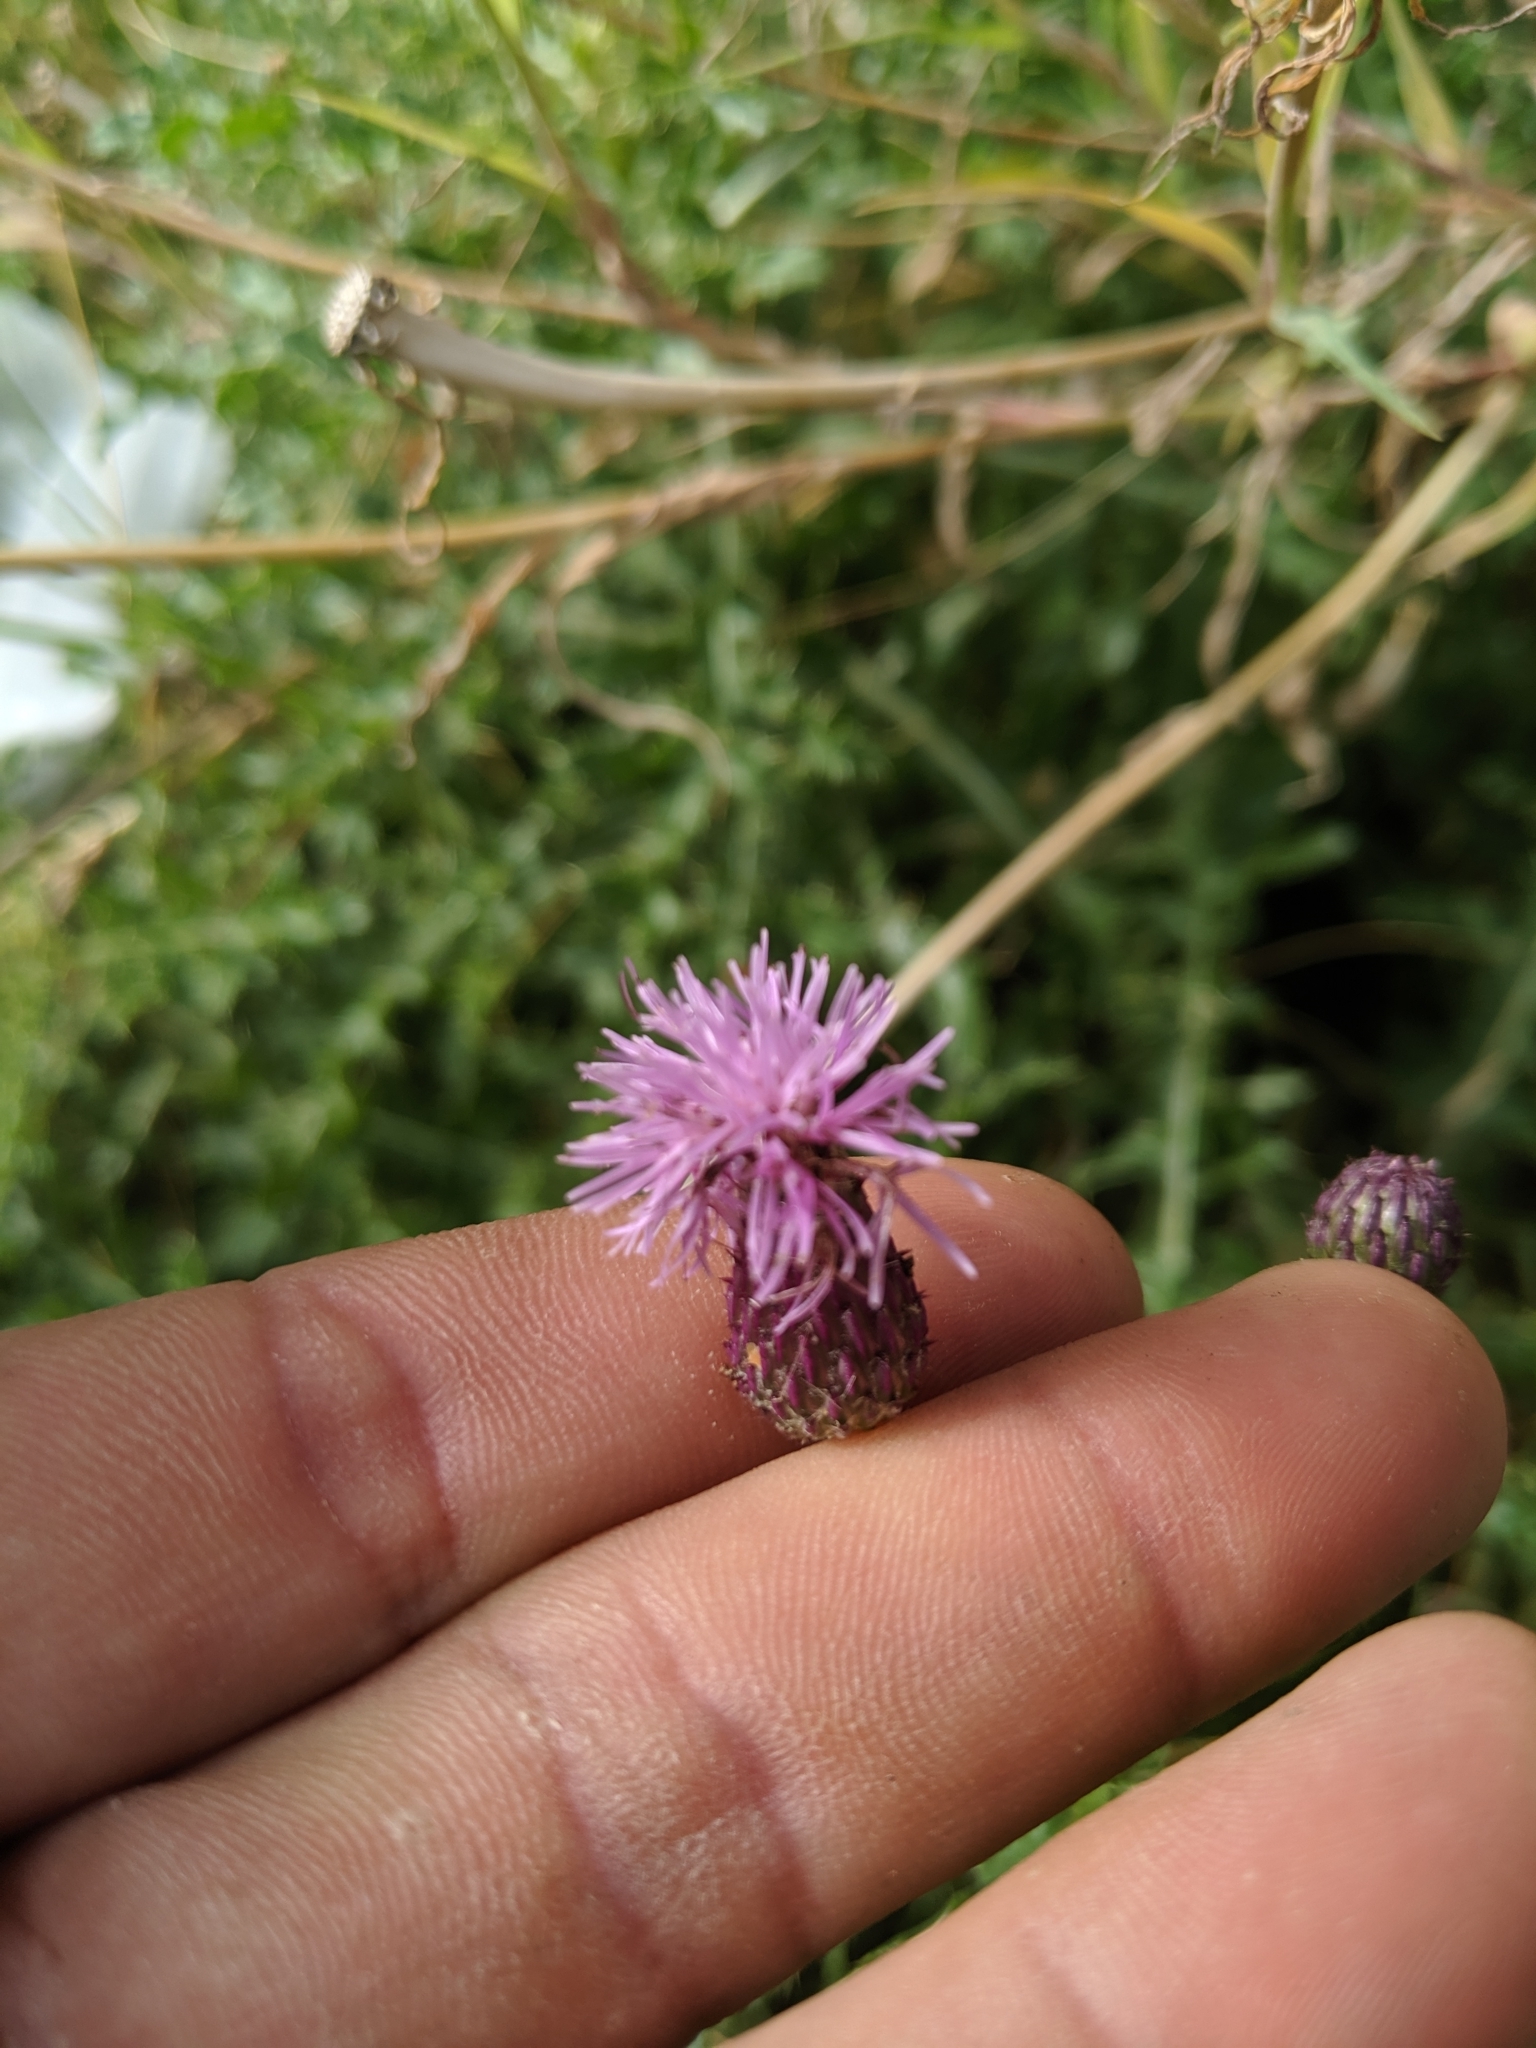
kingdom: Plantae
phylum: Tracheophyta
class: Magnoliopsida
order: Asterales
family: Asteraceae
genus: Cirsium
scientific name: Cirsium arvense
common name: Creeping thistle
